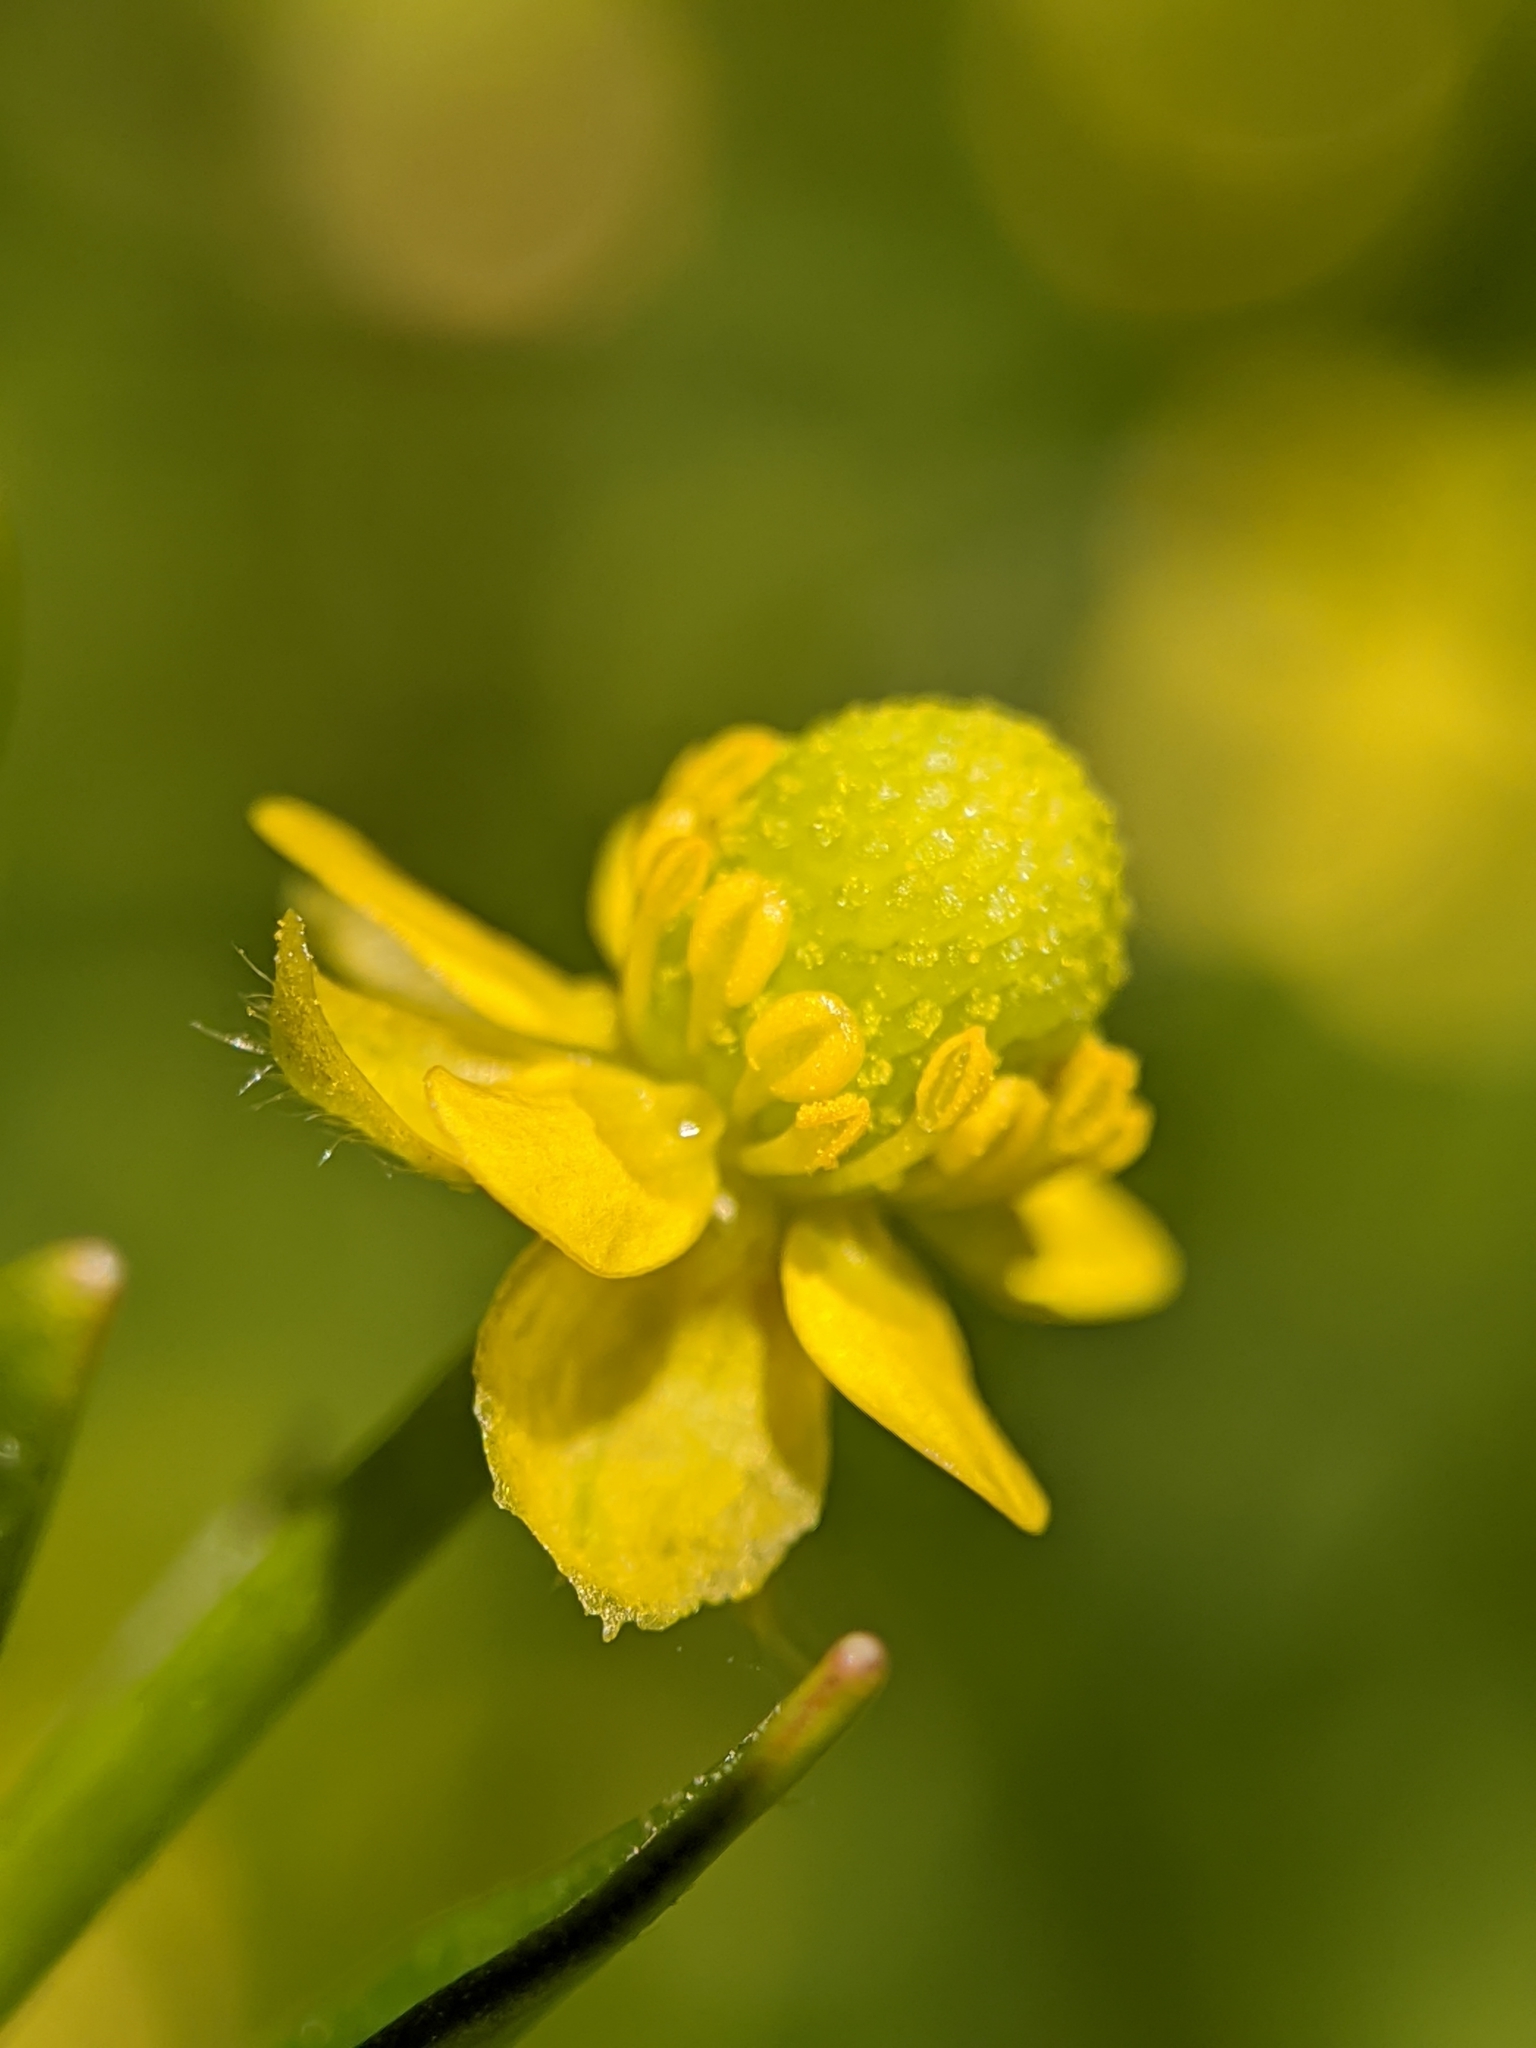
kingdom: Plantae
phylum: Tracheophyta
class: Magnoliopsida
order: Ranunculales
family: Ranunculaceae
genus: Ranunculus
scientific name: Ranunculus sceleratus
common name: Celery-leaved buttercup
